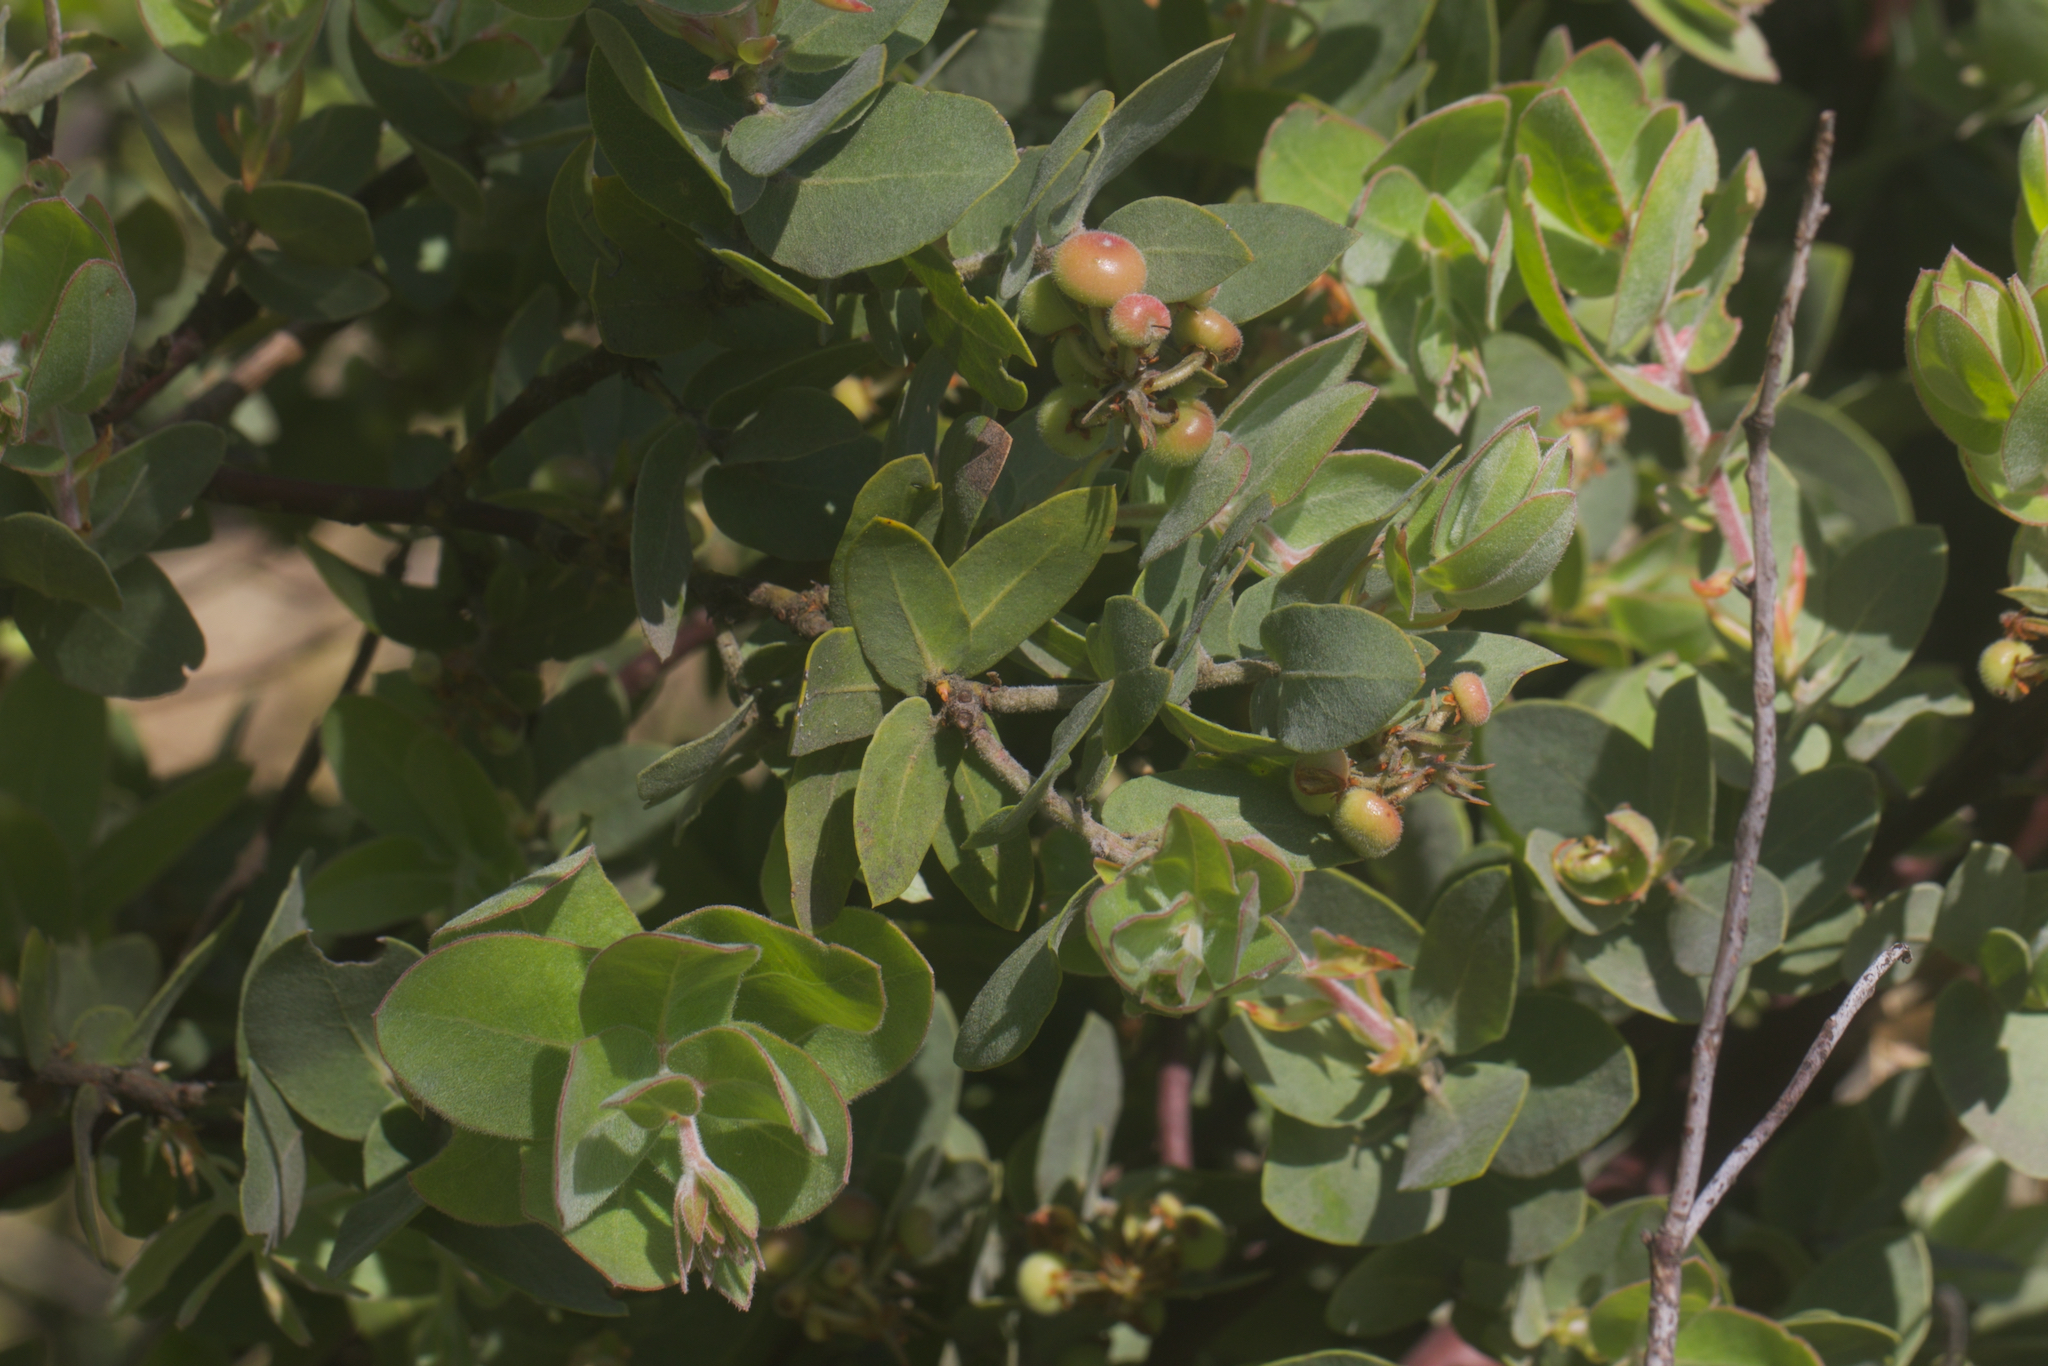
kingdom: Plantae
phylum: Tracheophyta
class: Magnoliopsida
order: Ericales
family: Ericaceae
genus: Arctostaphylos
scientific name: Arctostaphylos auriculata
